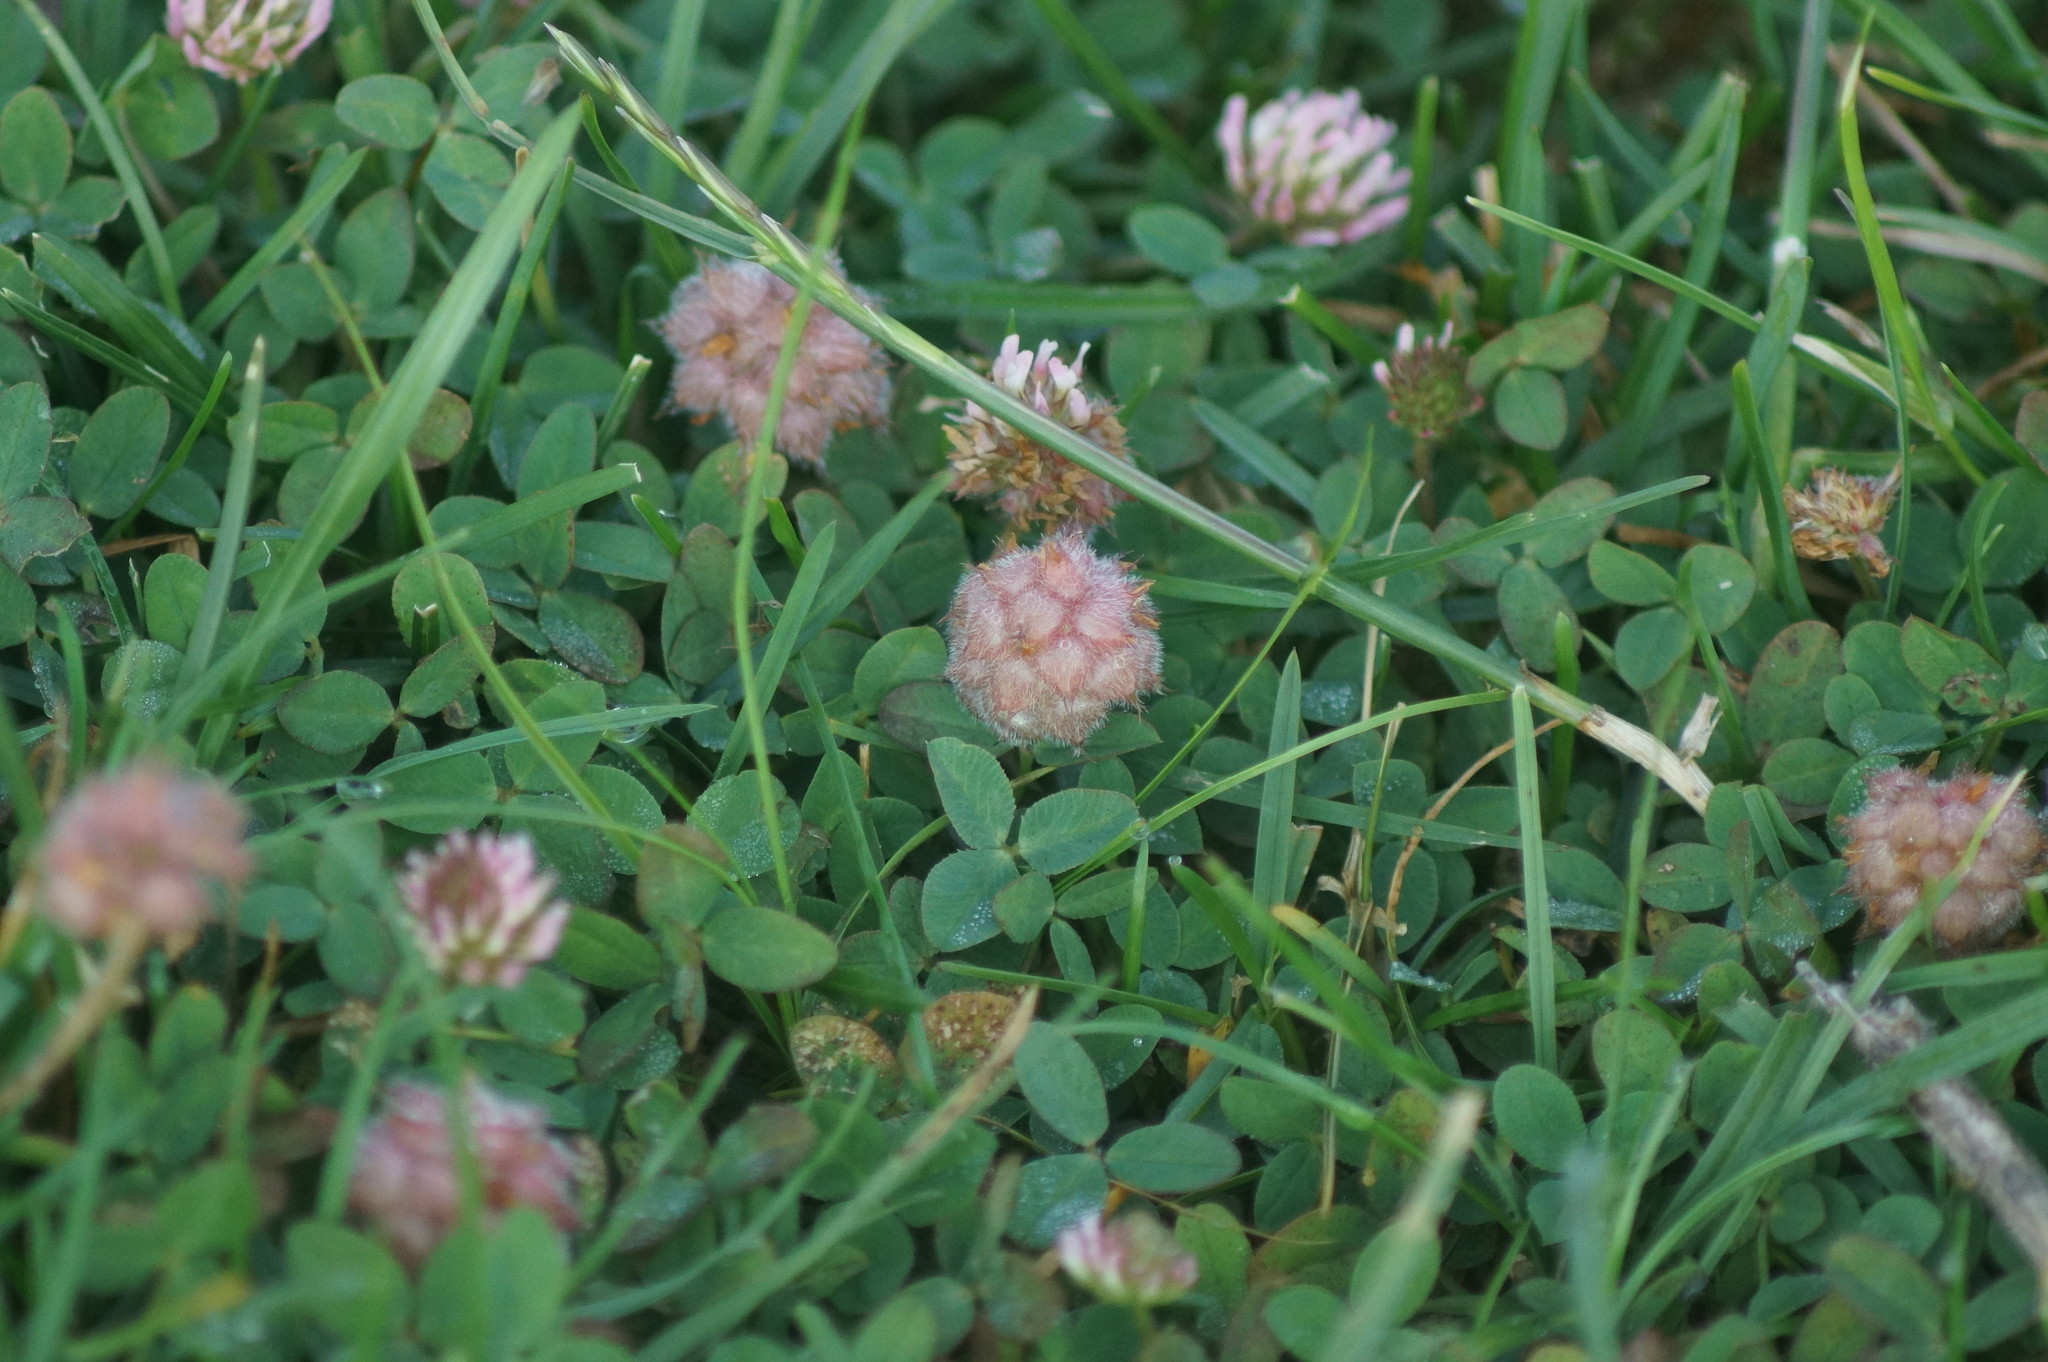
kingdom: Plantae
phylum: Tracheophyta
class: Magnoliopsida
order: Fabales
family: Fabaceae
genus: Trifolium
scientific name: Trifolium fragiferum
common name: Strawberry clover
